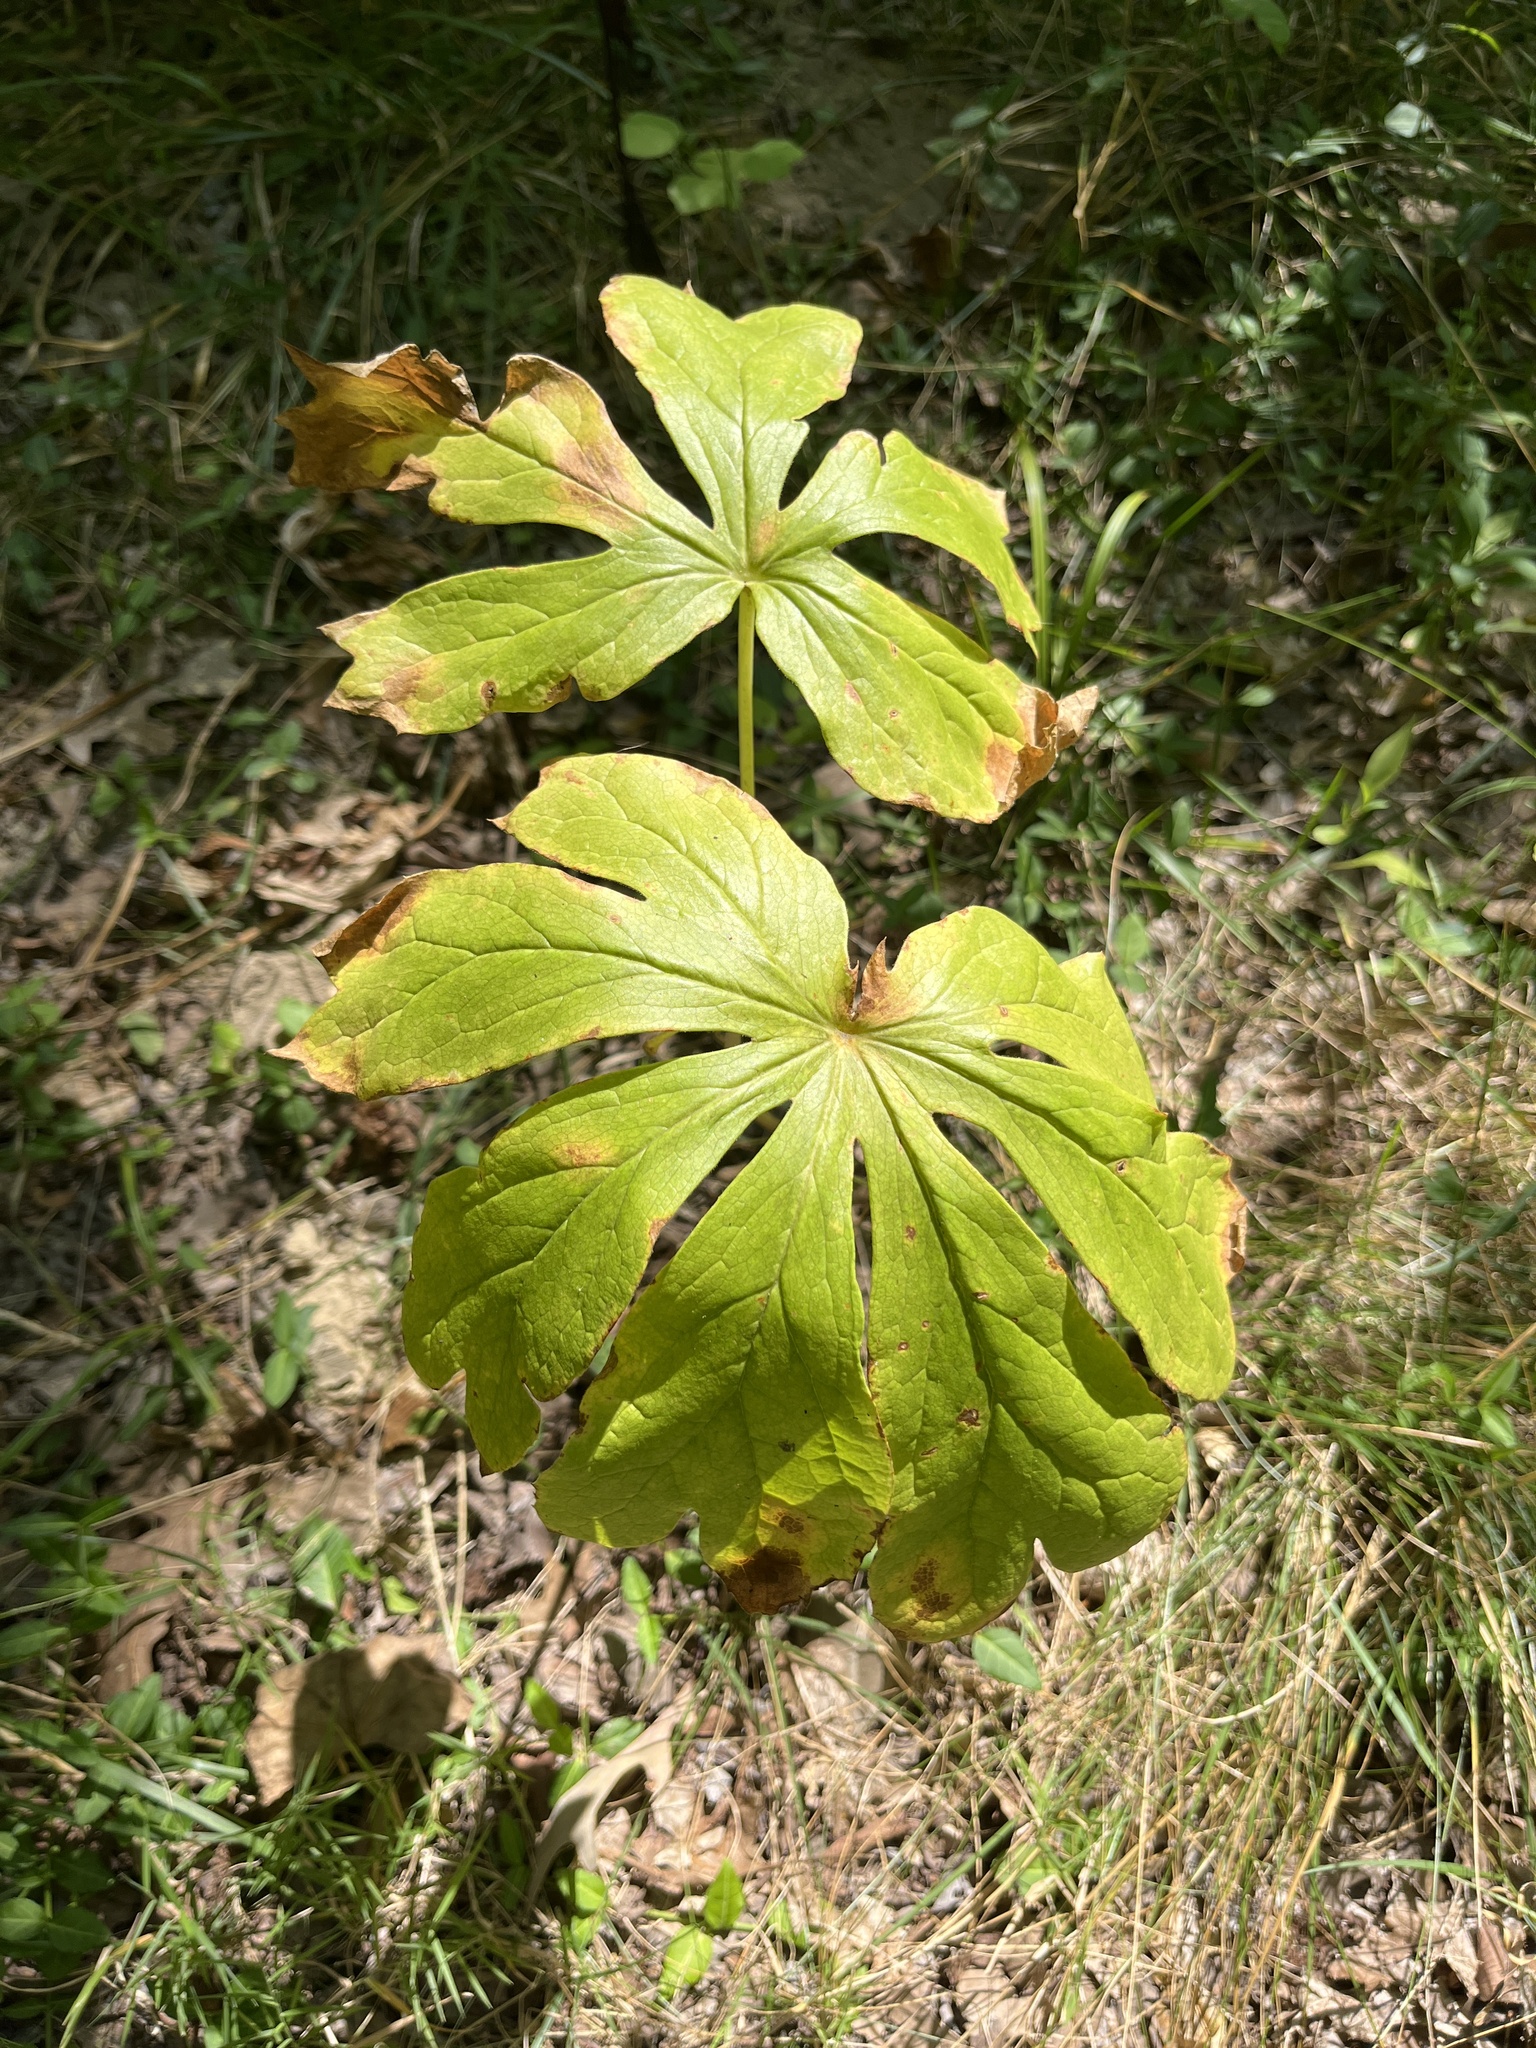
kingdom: Plantae
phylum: Tracheophyta
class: Magnoliopsida
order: Ranunculales
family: Berberidaceae
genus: Podophyllum
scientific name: Podophyllum peltatum
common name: Wild mandrake
